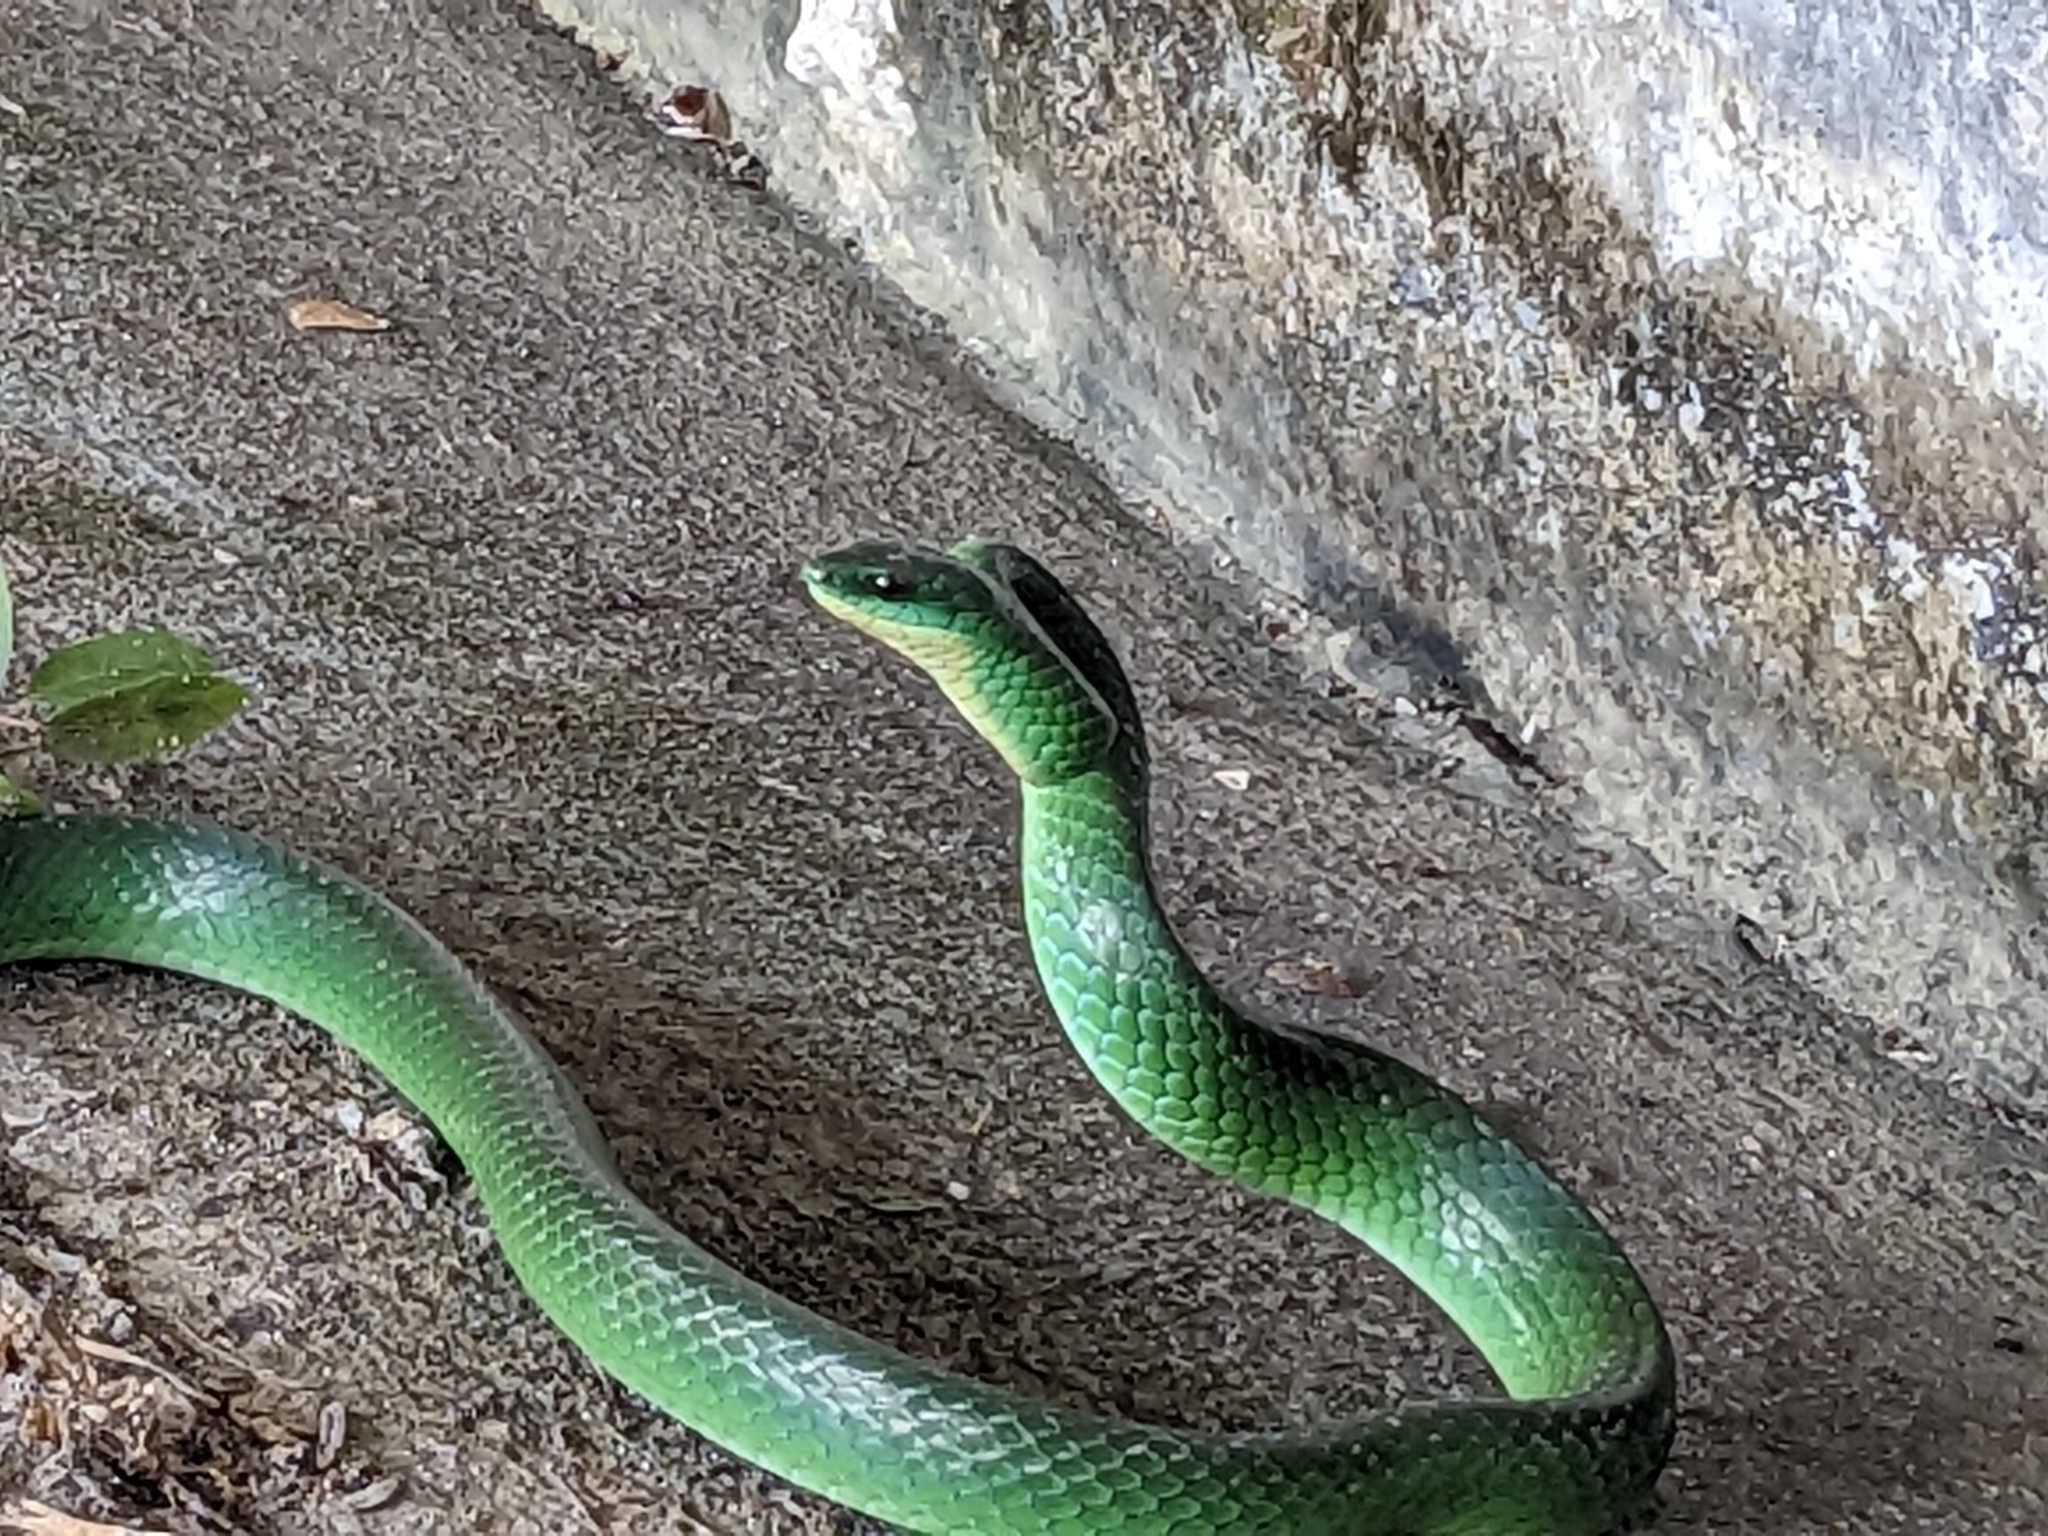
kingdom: Animalia
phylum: Chordata
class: Squamata
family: Colubridae
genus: Ptyas
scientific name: Ptyas major
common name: Chinese green snake
